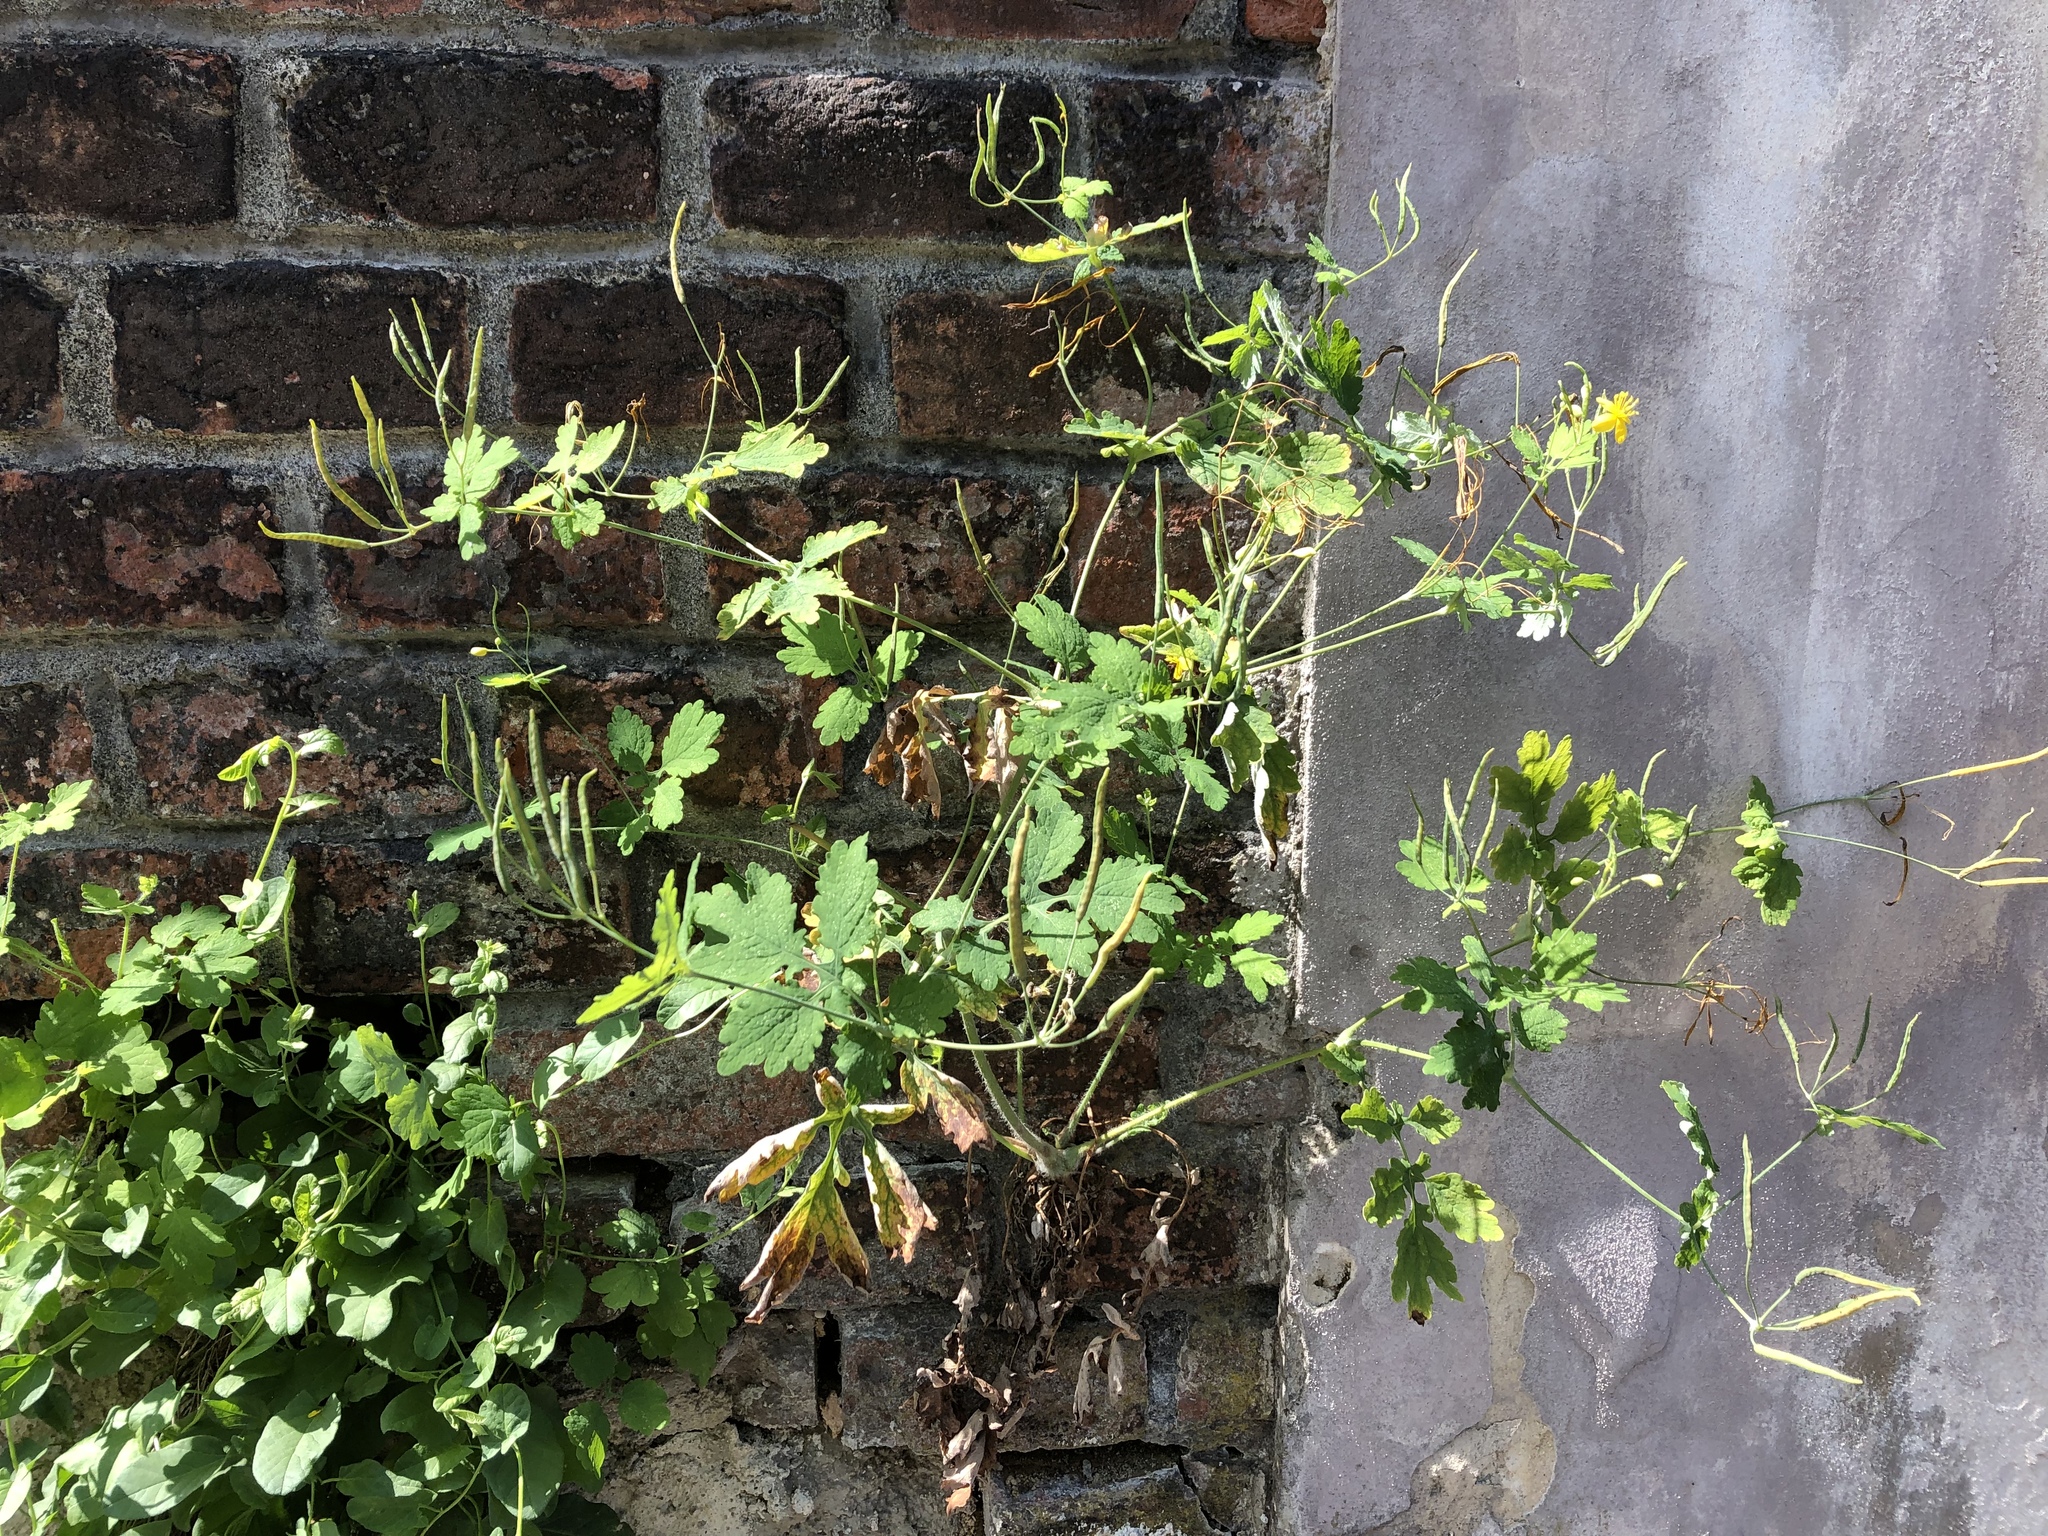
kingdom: Plantae
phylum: Tracheophyta
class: Magnoliopsida
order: Ranunculales
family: Papaveraceae
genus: Chelidonium
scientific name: Chelidonium majus
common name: Greater celandine
